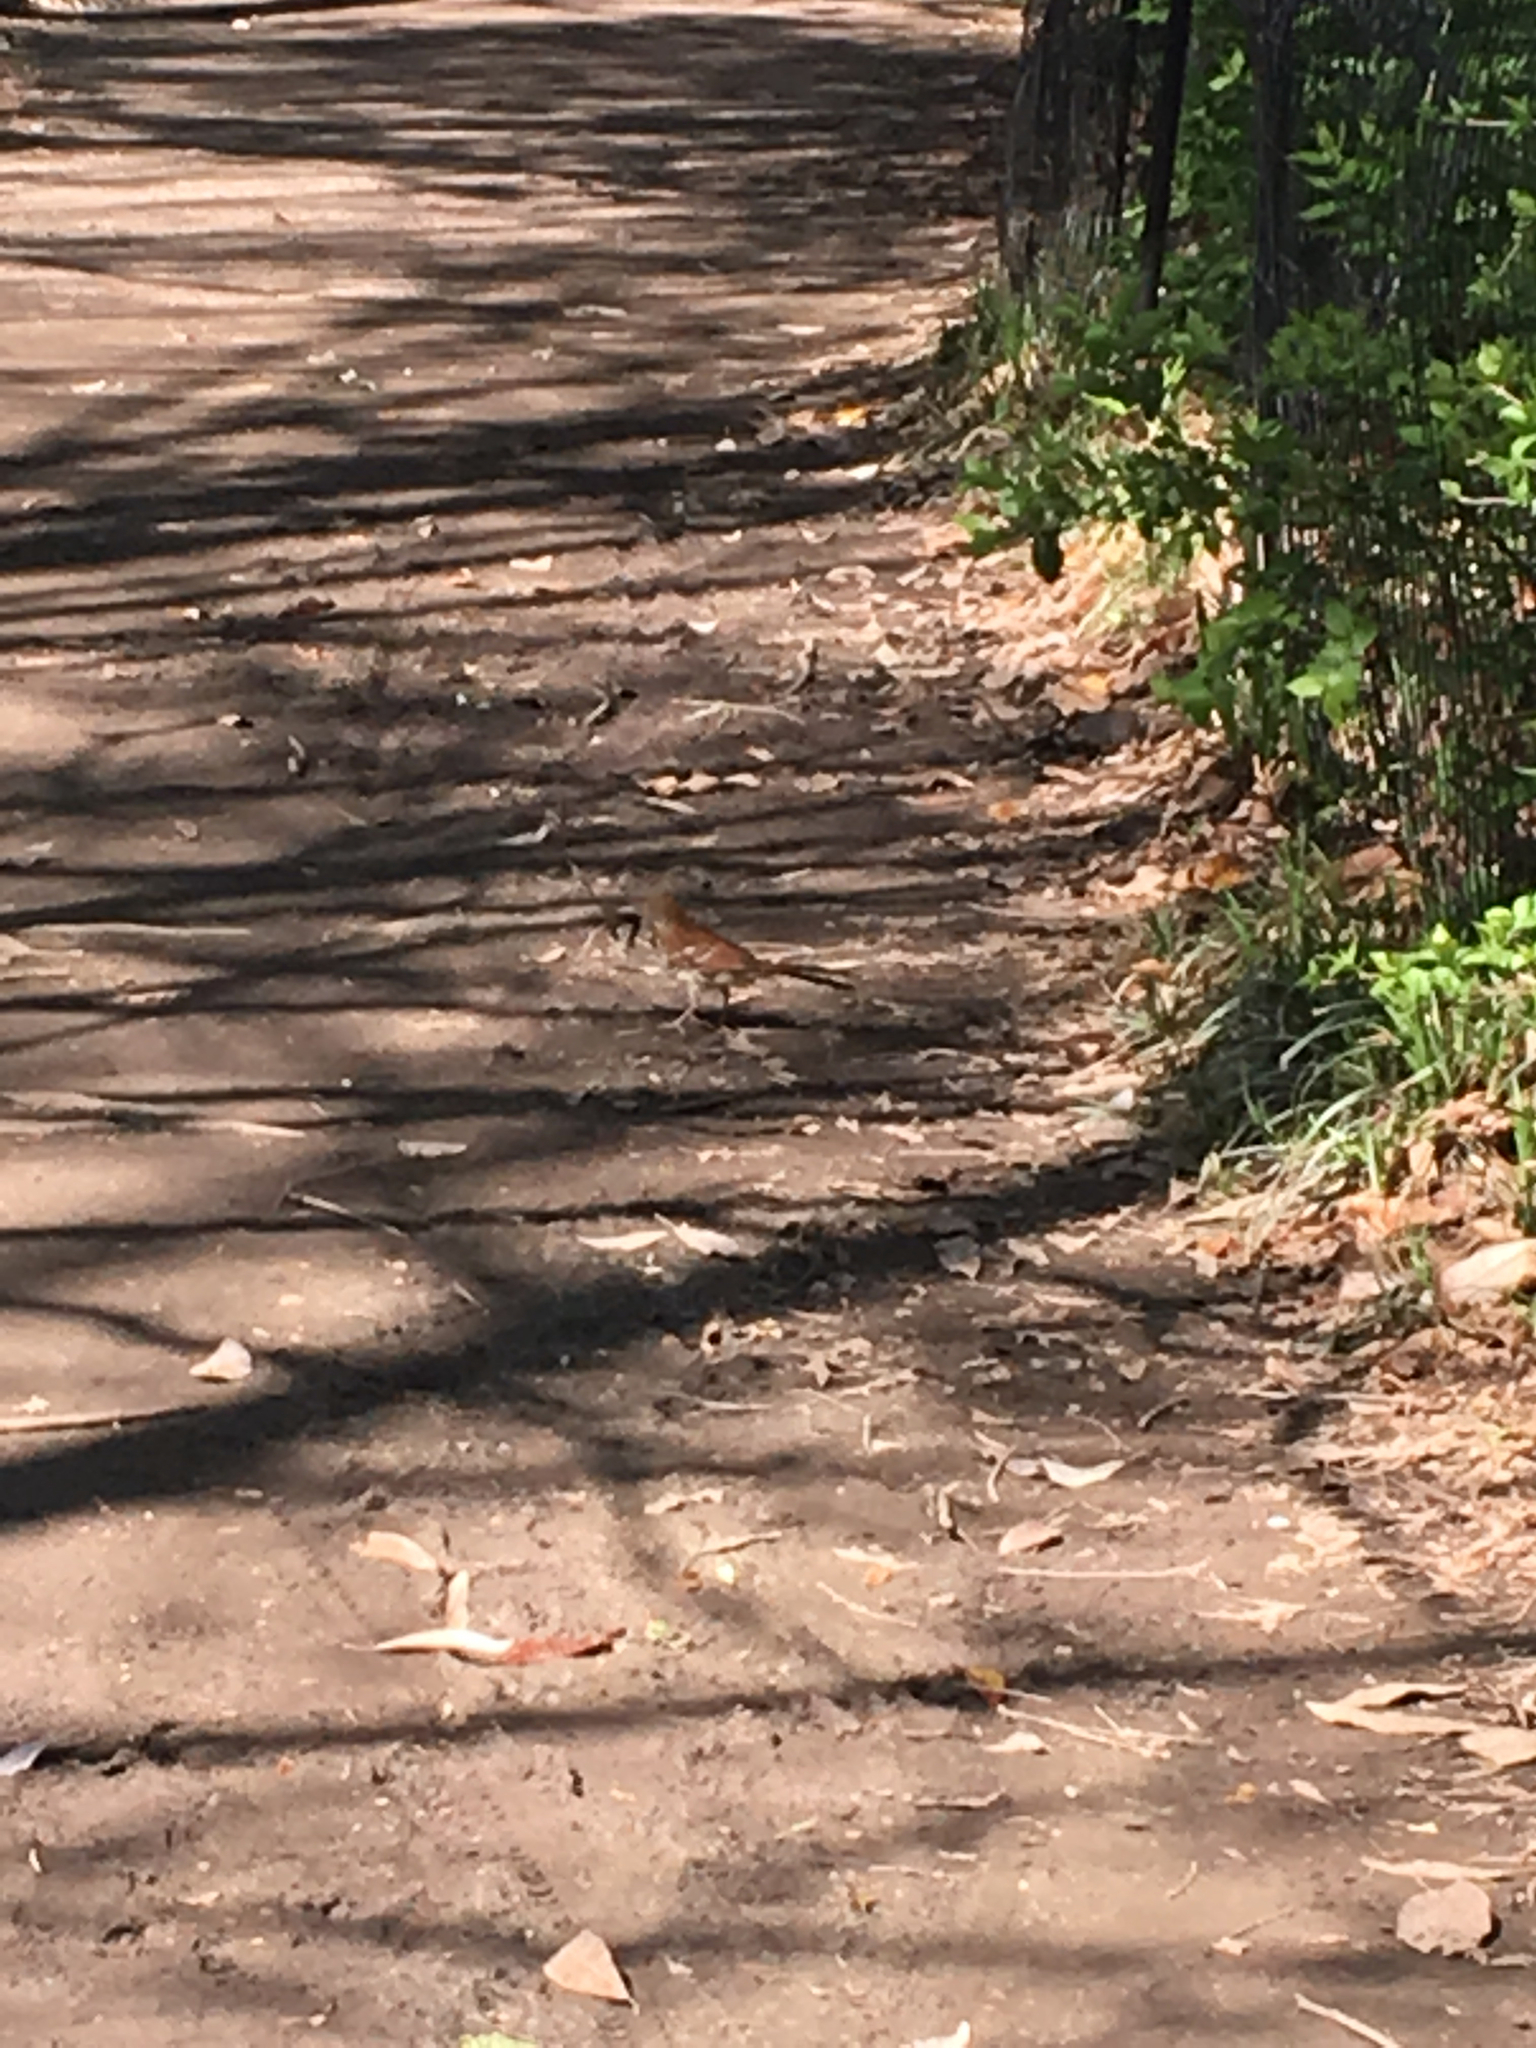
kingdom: Animalia
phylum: Chordata
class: Aves
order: Passeriformes
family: Mimidae
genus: Toxostoma
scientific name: Toxostoma rufum
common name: Brown thrasher
